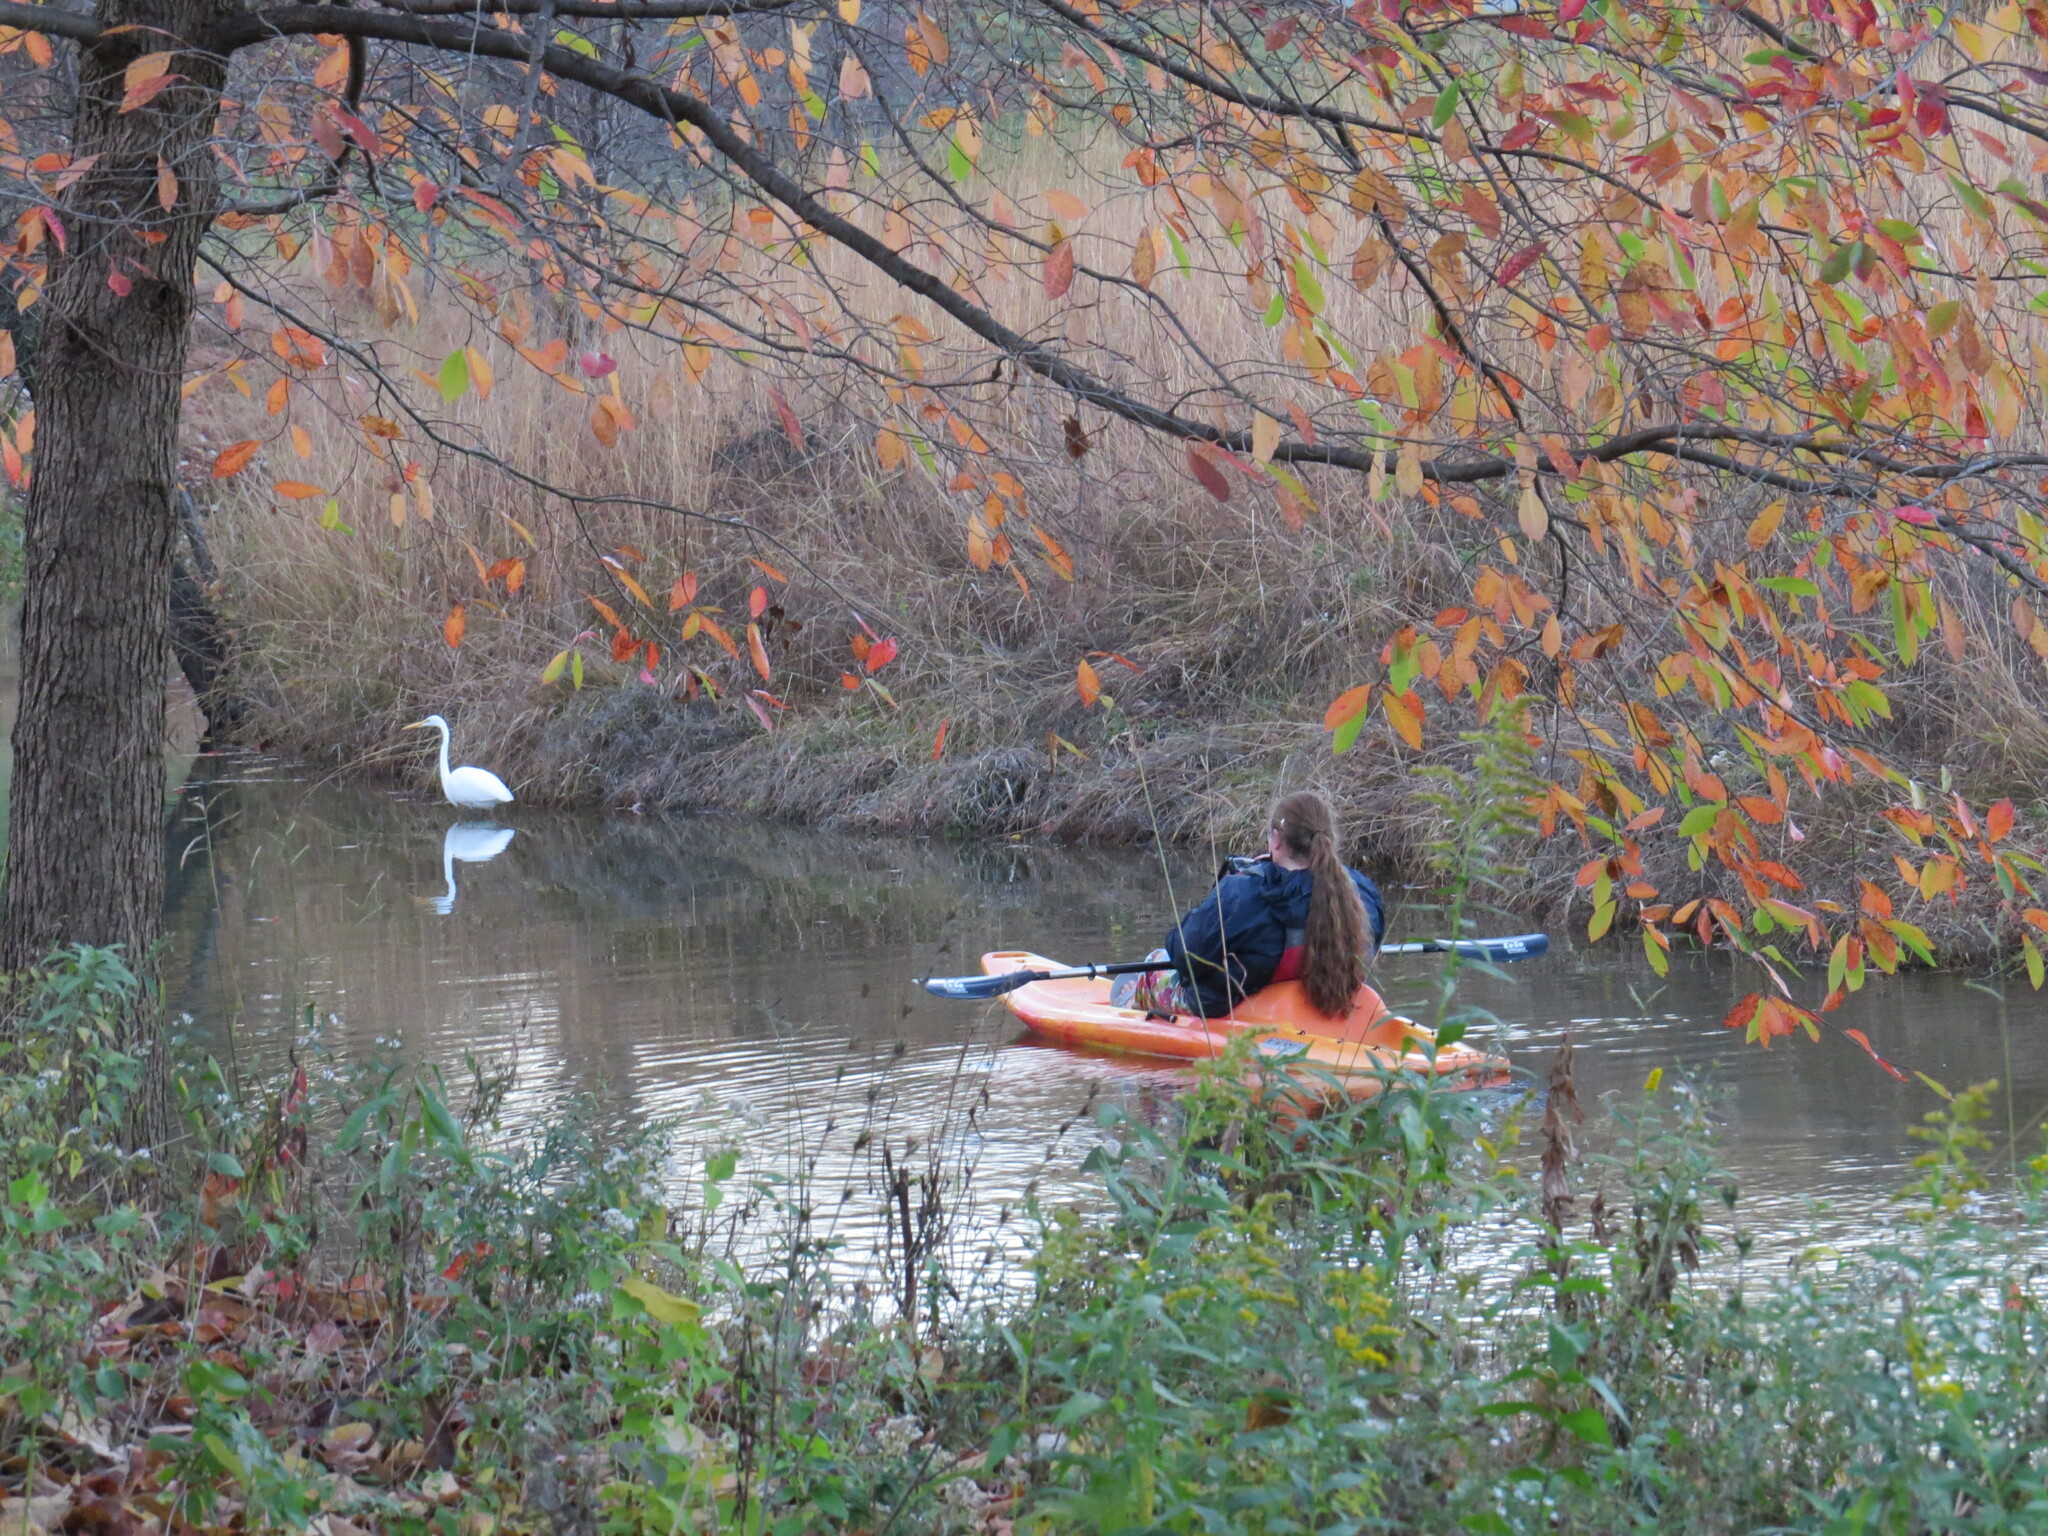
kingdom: Animalia
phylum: Chordata
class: Aves
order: Pelecaniformes
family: Ardeidae
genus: Ardea
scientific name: Ardea alba
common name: Great egret
